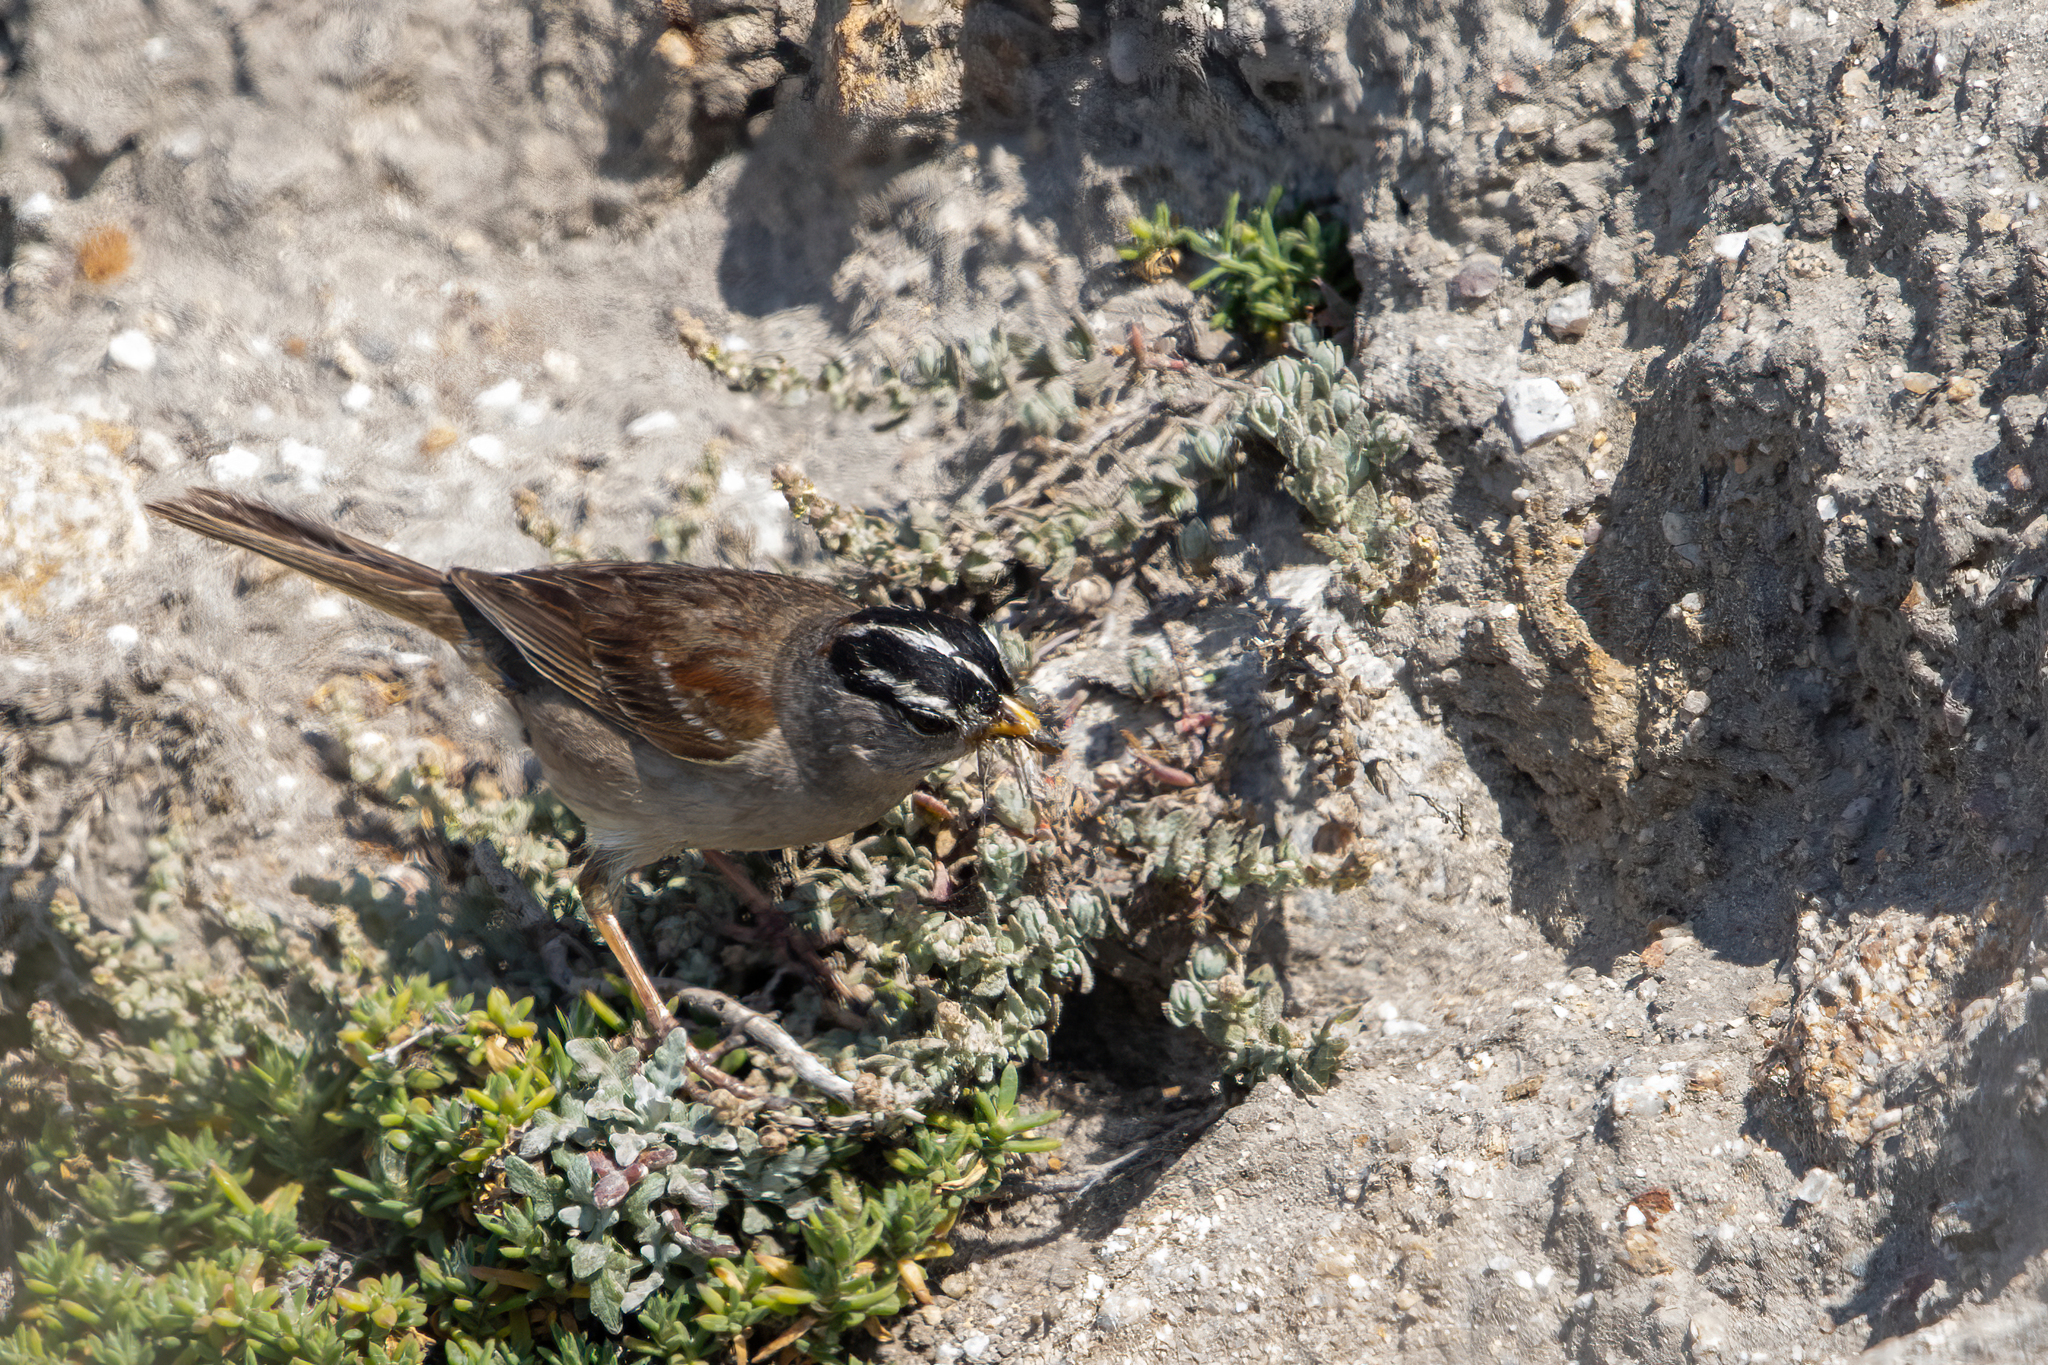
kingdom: Animalia
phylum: Chordata
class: Aves
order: Passeriformes
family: Passerellidae
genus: Zonotrichia
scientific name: Zonotrichia leucophrys
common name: White-crowned sparrow
